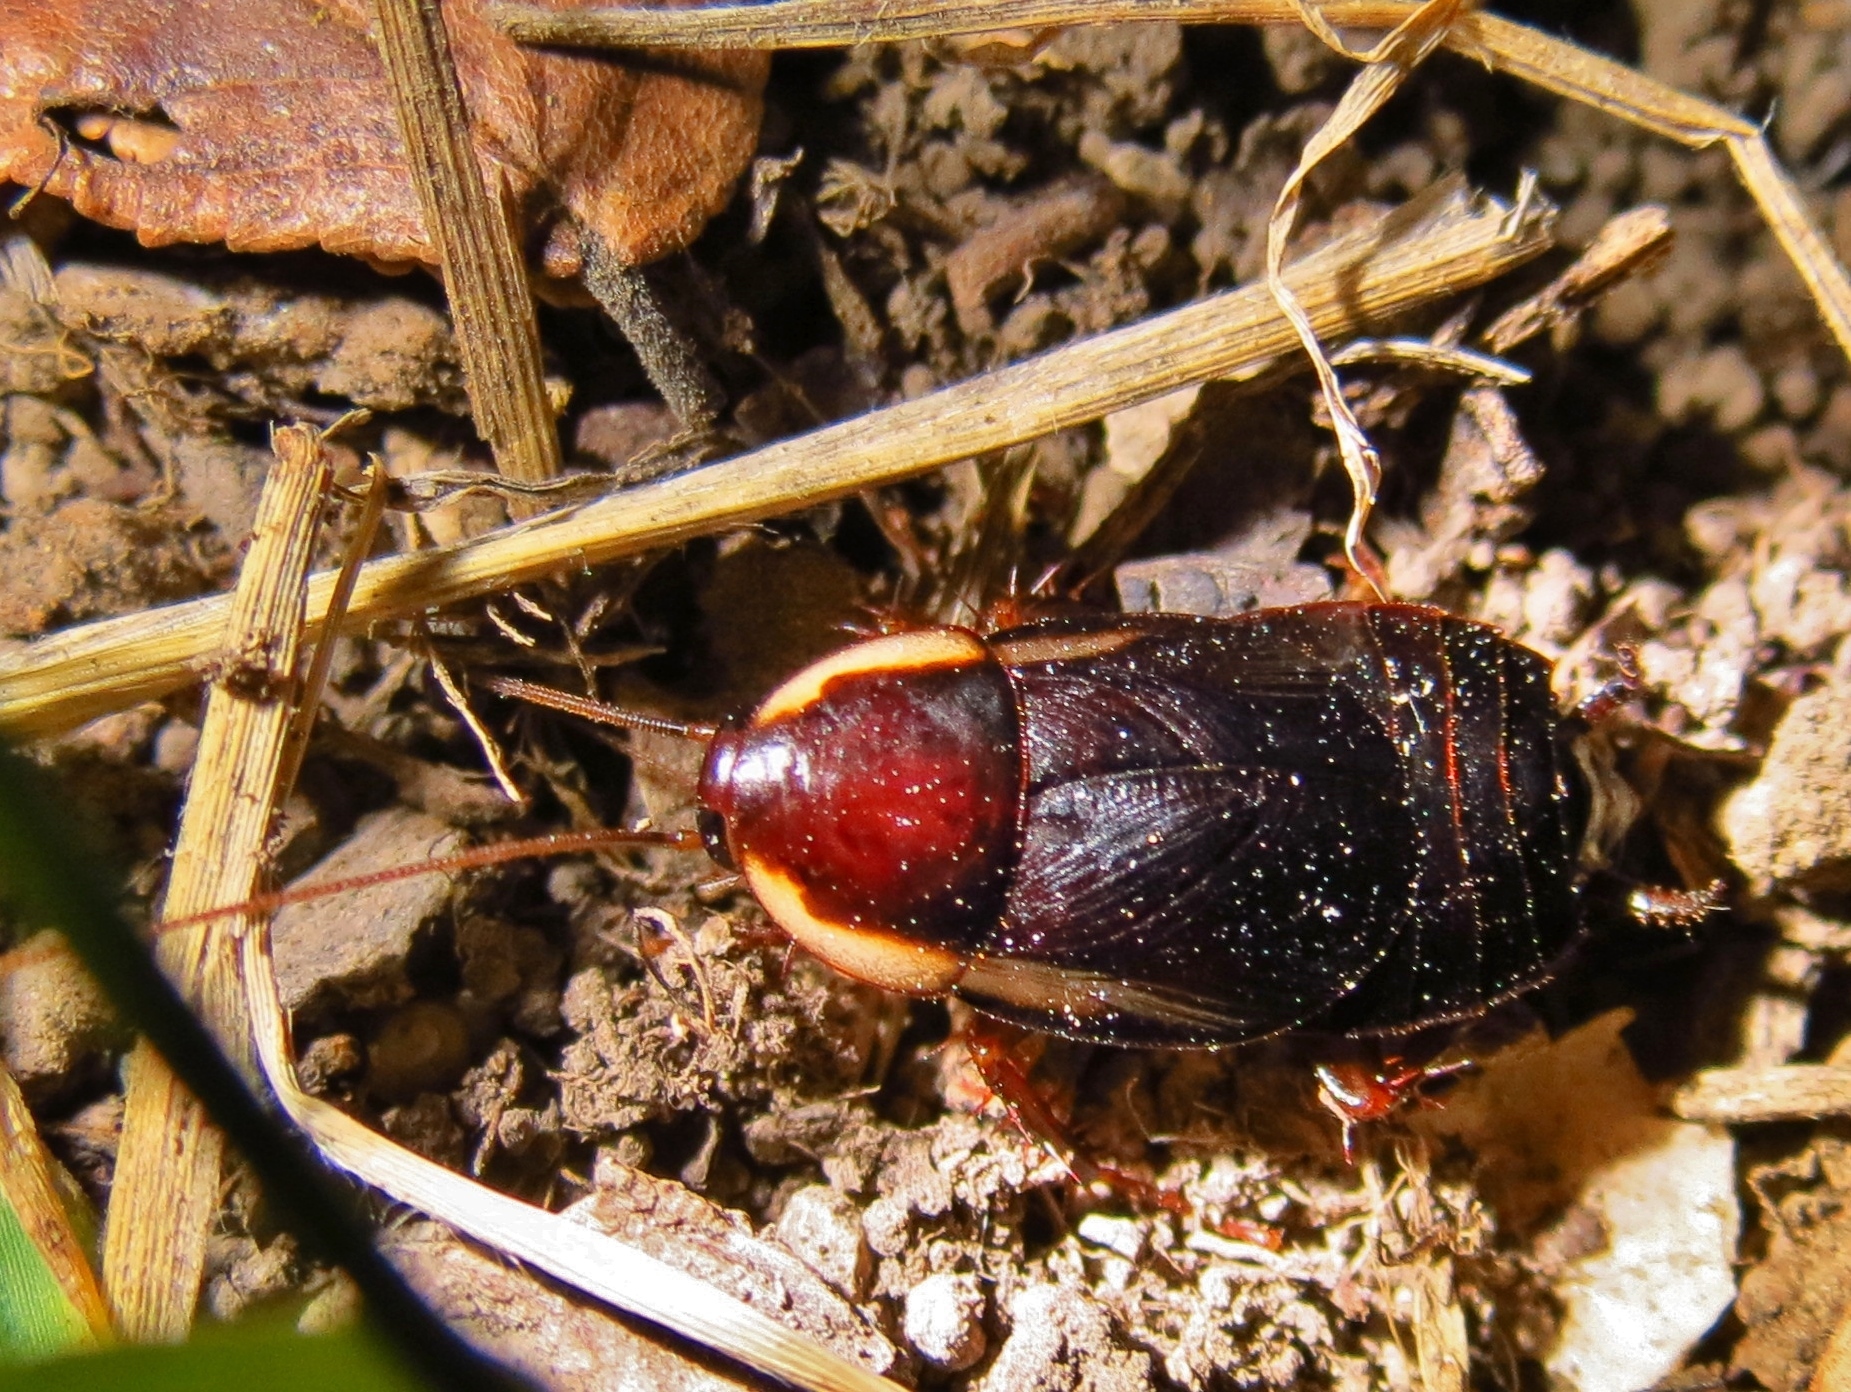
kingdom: Animalia
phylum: Arthropoda
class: Insecta
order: Blattodea
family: Ectobiidae
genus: Parcoblatta
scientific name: Parcoblatta pennsylvanica
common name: Pennsylvanian wood cockroach
